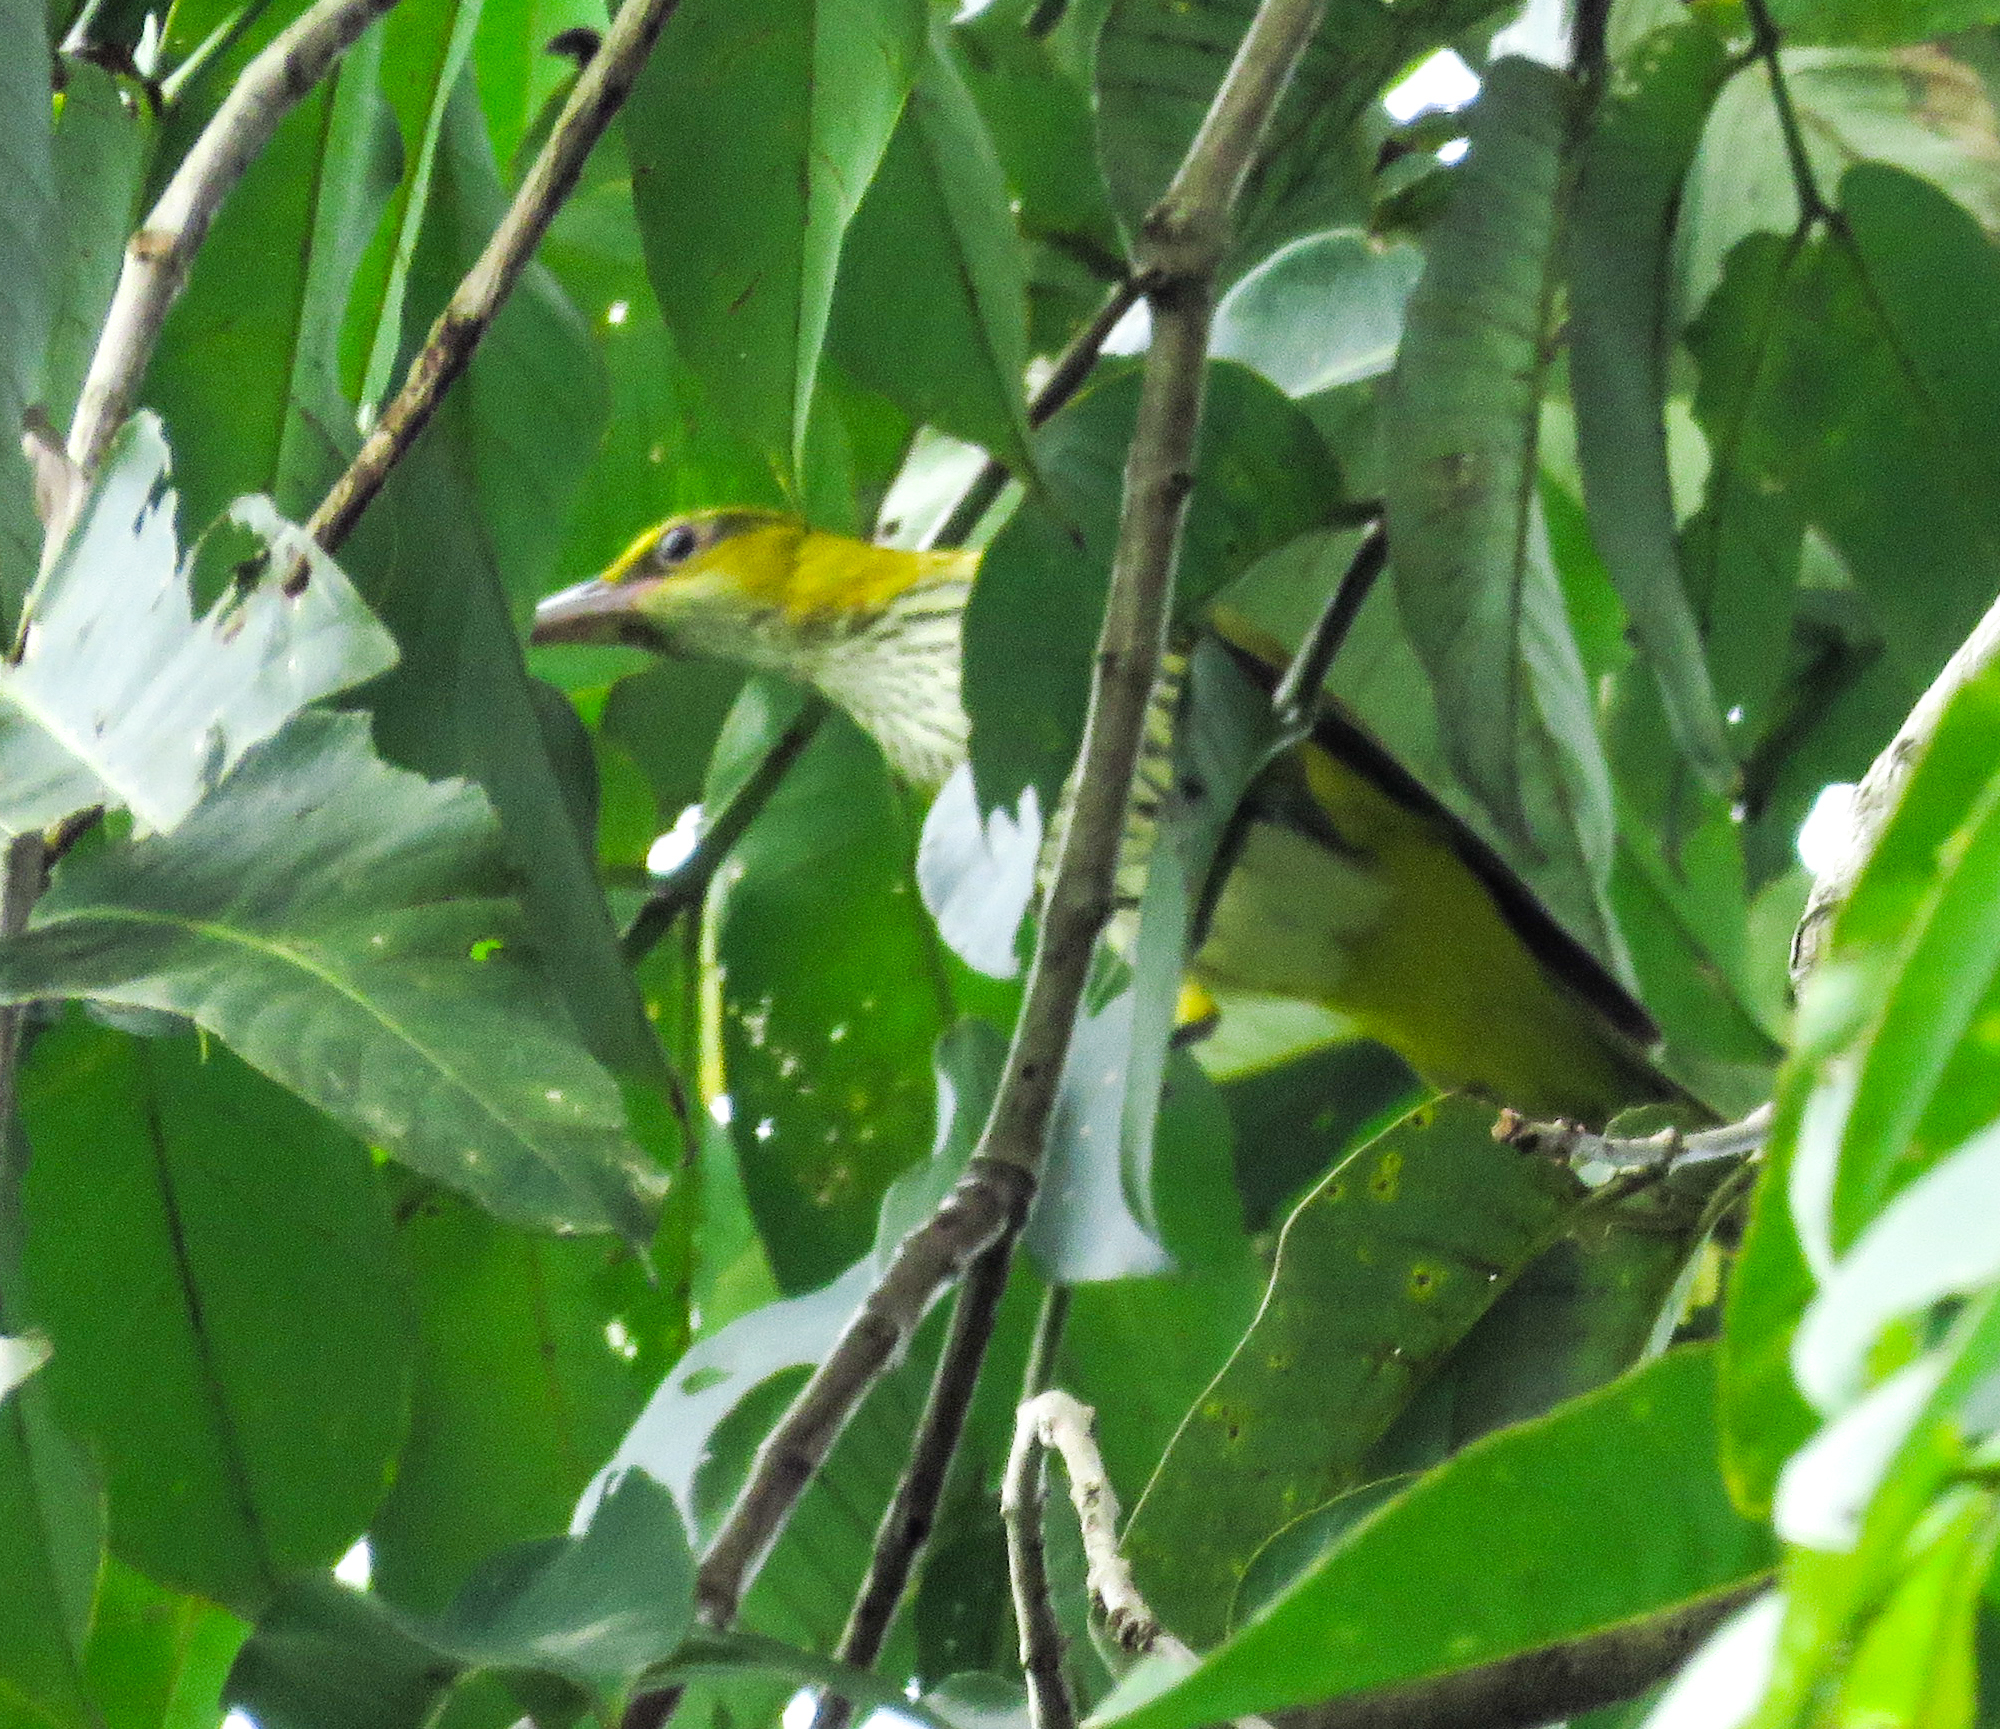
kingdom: Animalia
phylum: Chordata
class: Aves
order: Passeriformes
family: Oriolidae
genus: Oriolus
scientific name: Oriolus chinensis
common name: Black-naped oriole
